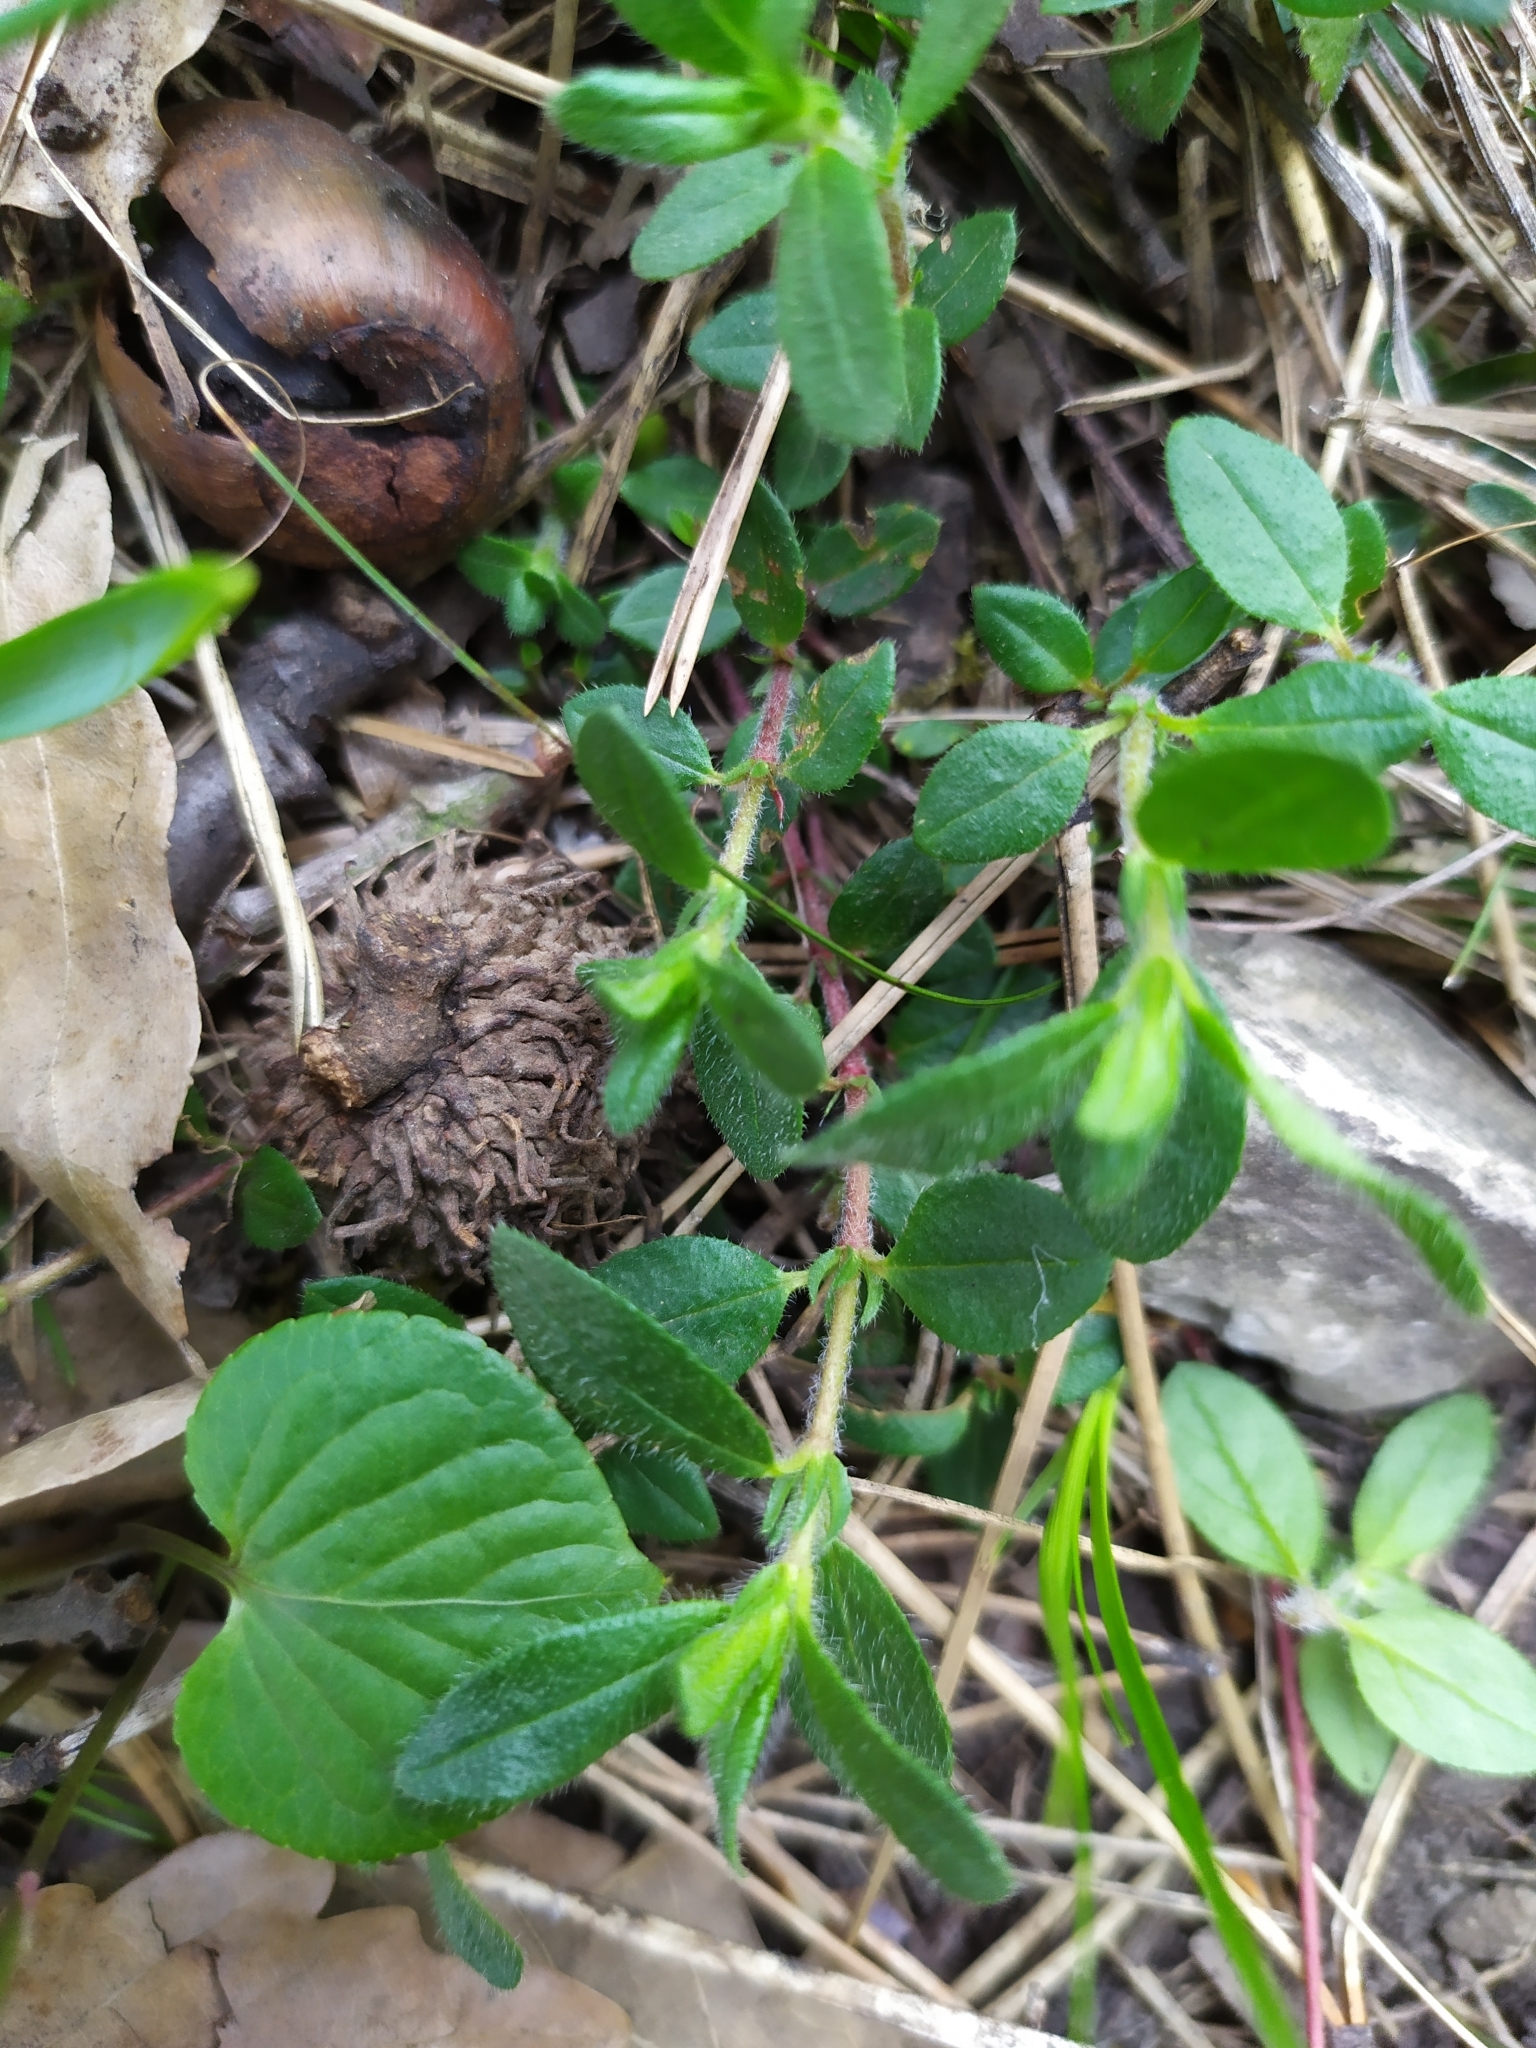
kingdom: Plantae
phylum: Tracheophyta
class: Magnoliopsida
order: Malvales
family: Cistaceae
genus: Helianthemum
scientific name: Helianthemum nummularium
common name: Common rock-rose
